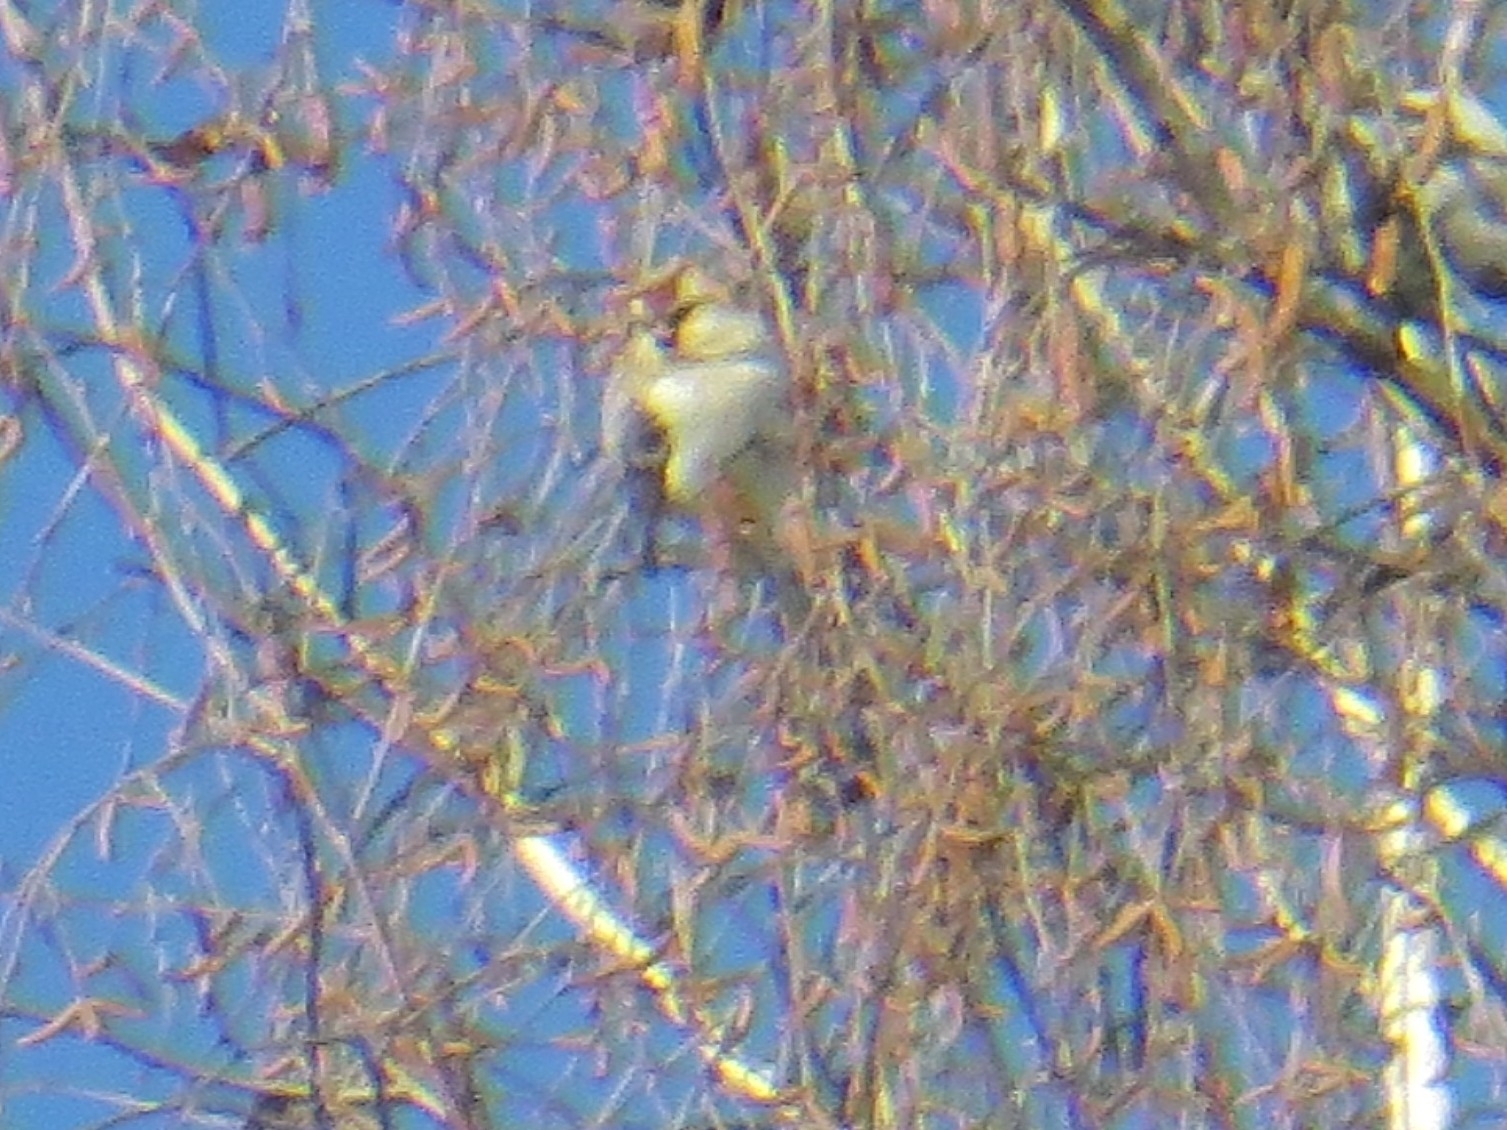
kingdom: Animalia
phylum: Chordata
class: Aves
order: Passeriformes
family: Fringillidae
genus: Acanthis
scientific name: Acanthis hornemanni
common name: Arctic redpoll
